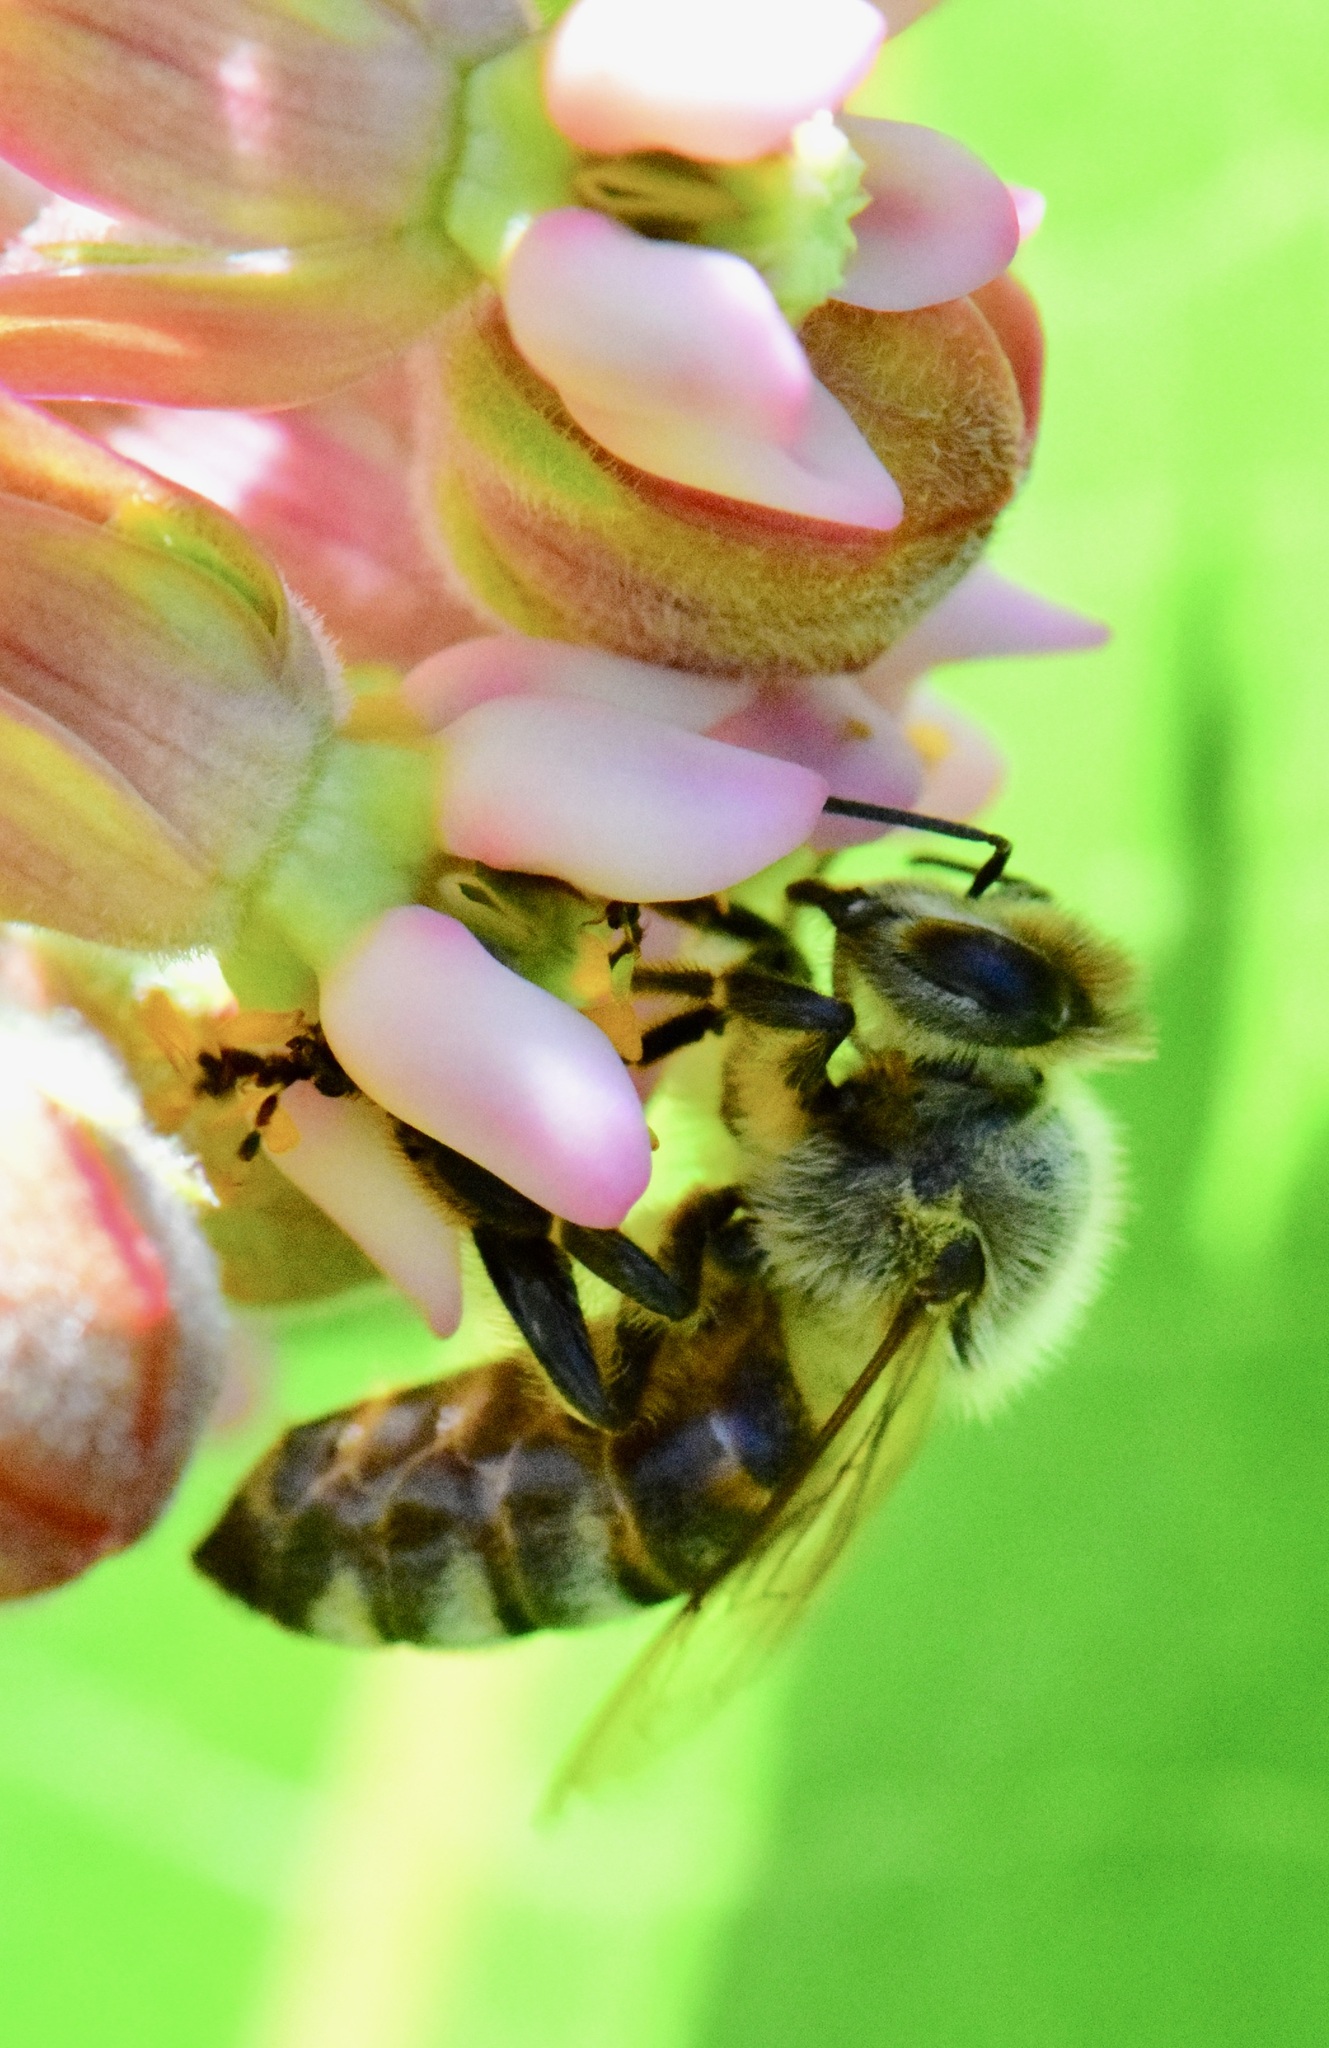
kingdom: Animalia
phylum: Arthropoda
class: Insecta
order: Hymenoptera
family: Apidae
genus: Apis
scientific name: Apis mellifera
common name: Honey bee
